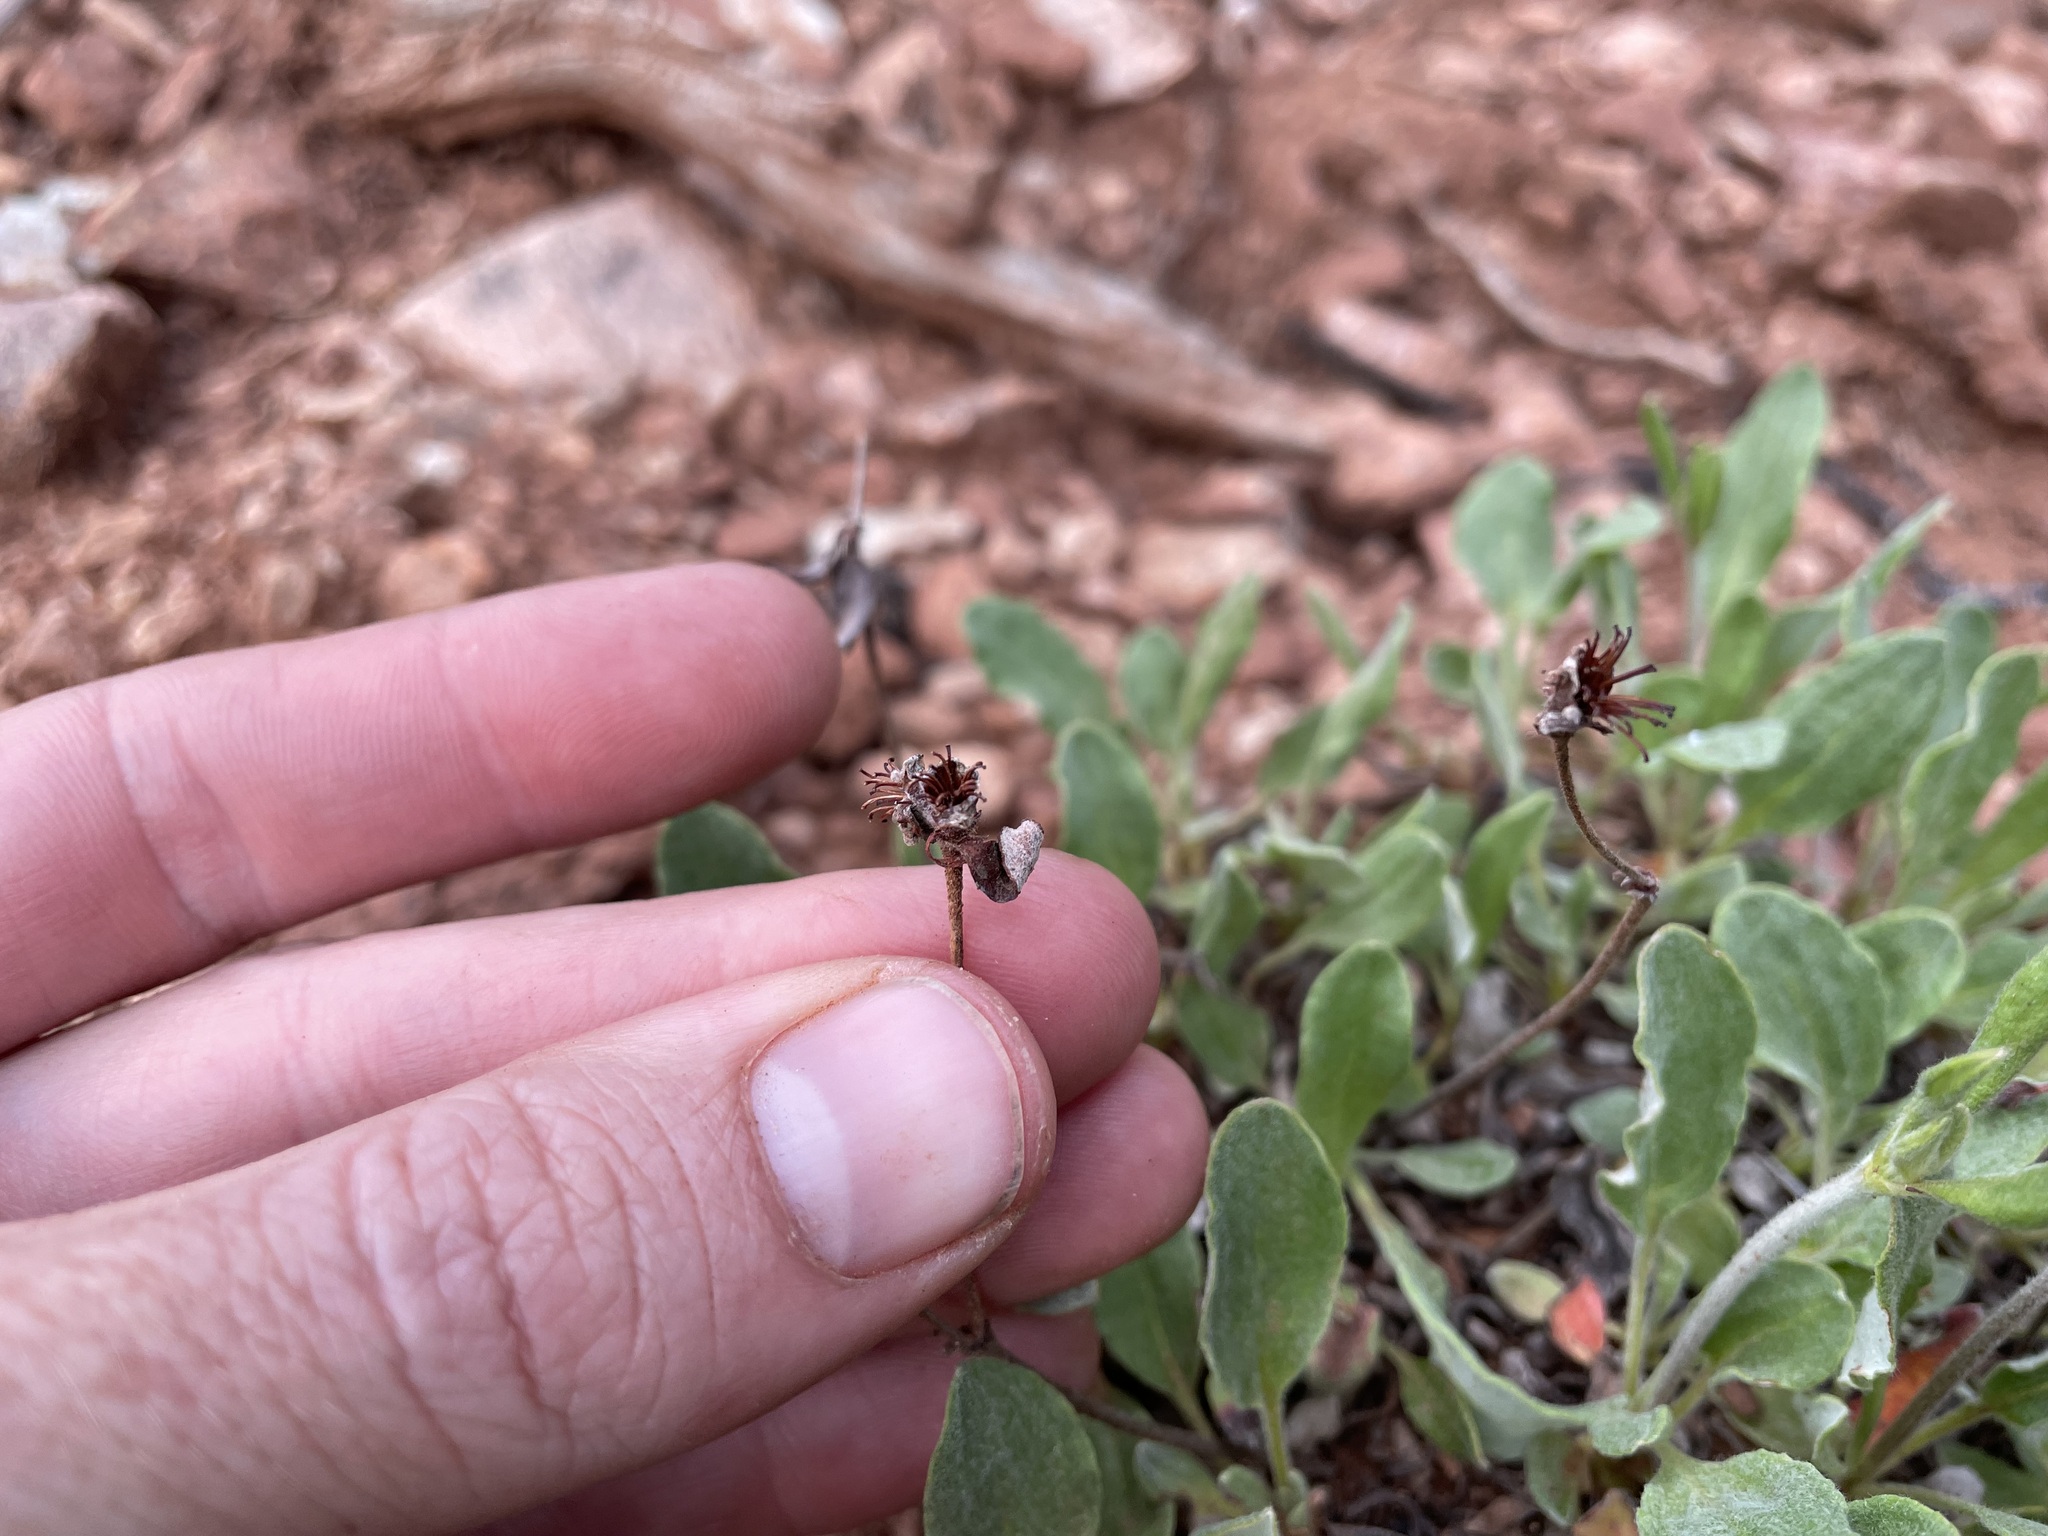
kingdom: Plantae
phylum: Tracheophyta
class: Magnoliopsida
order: Caryophyllales
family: Polygonaceae
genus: Eriogonum
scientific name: Eriogonum jamesii
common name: Antelope-sage
